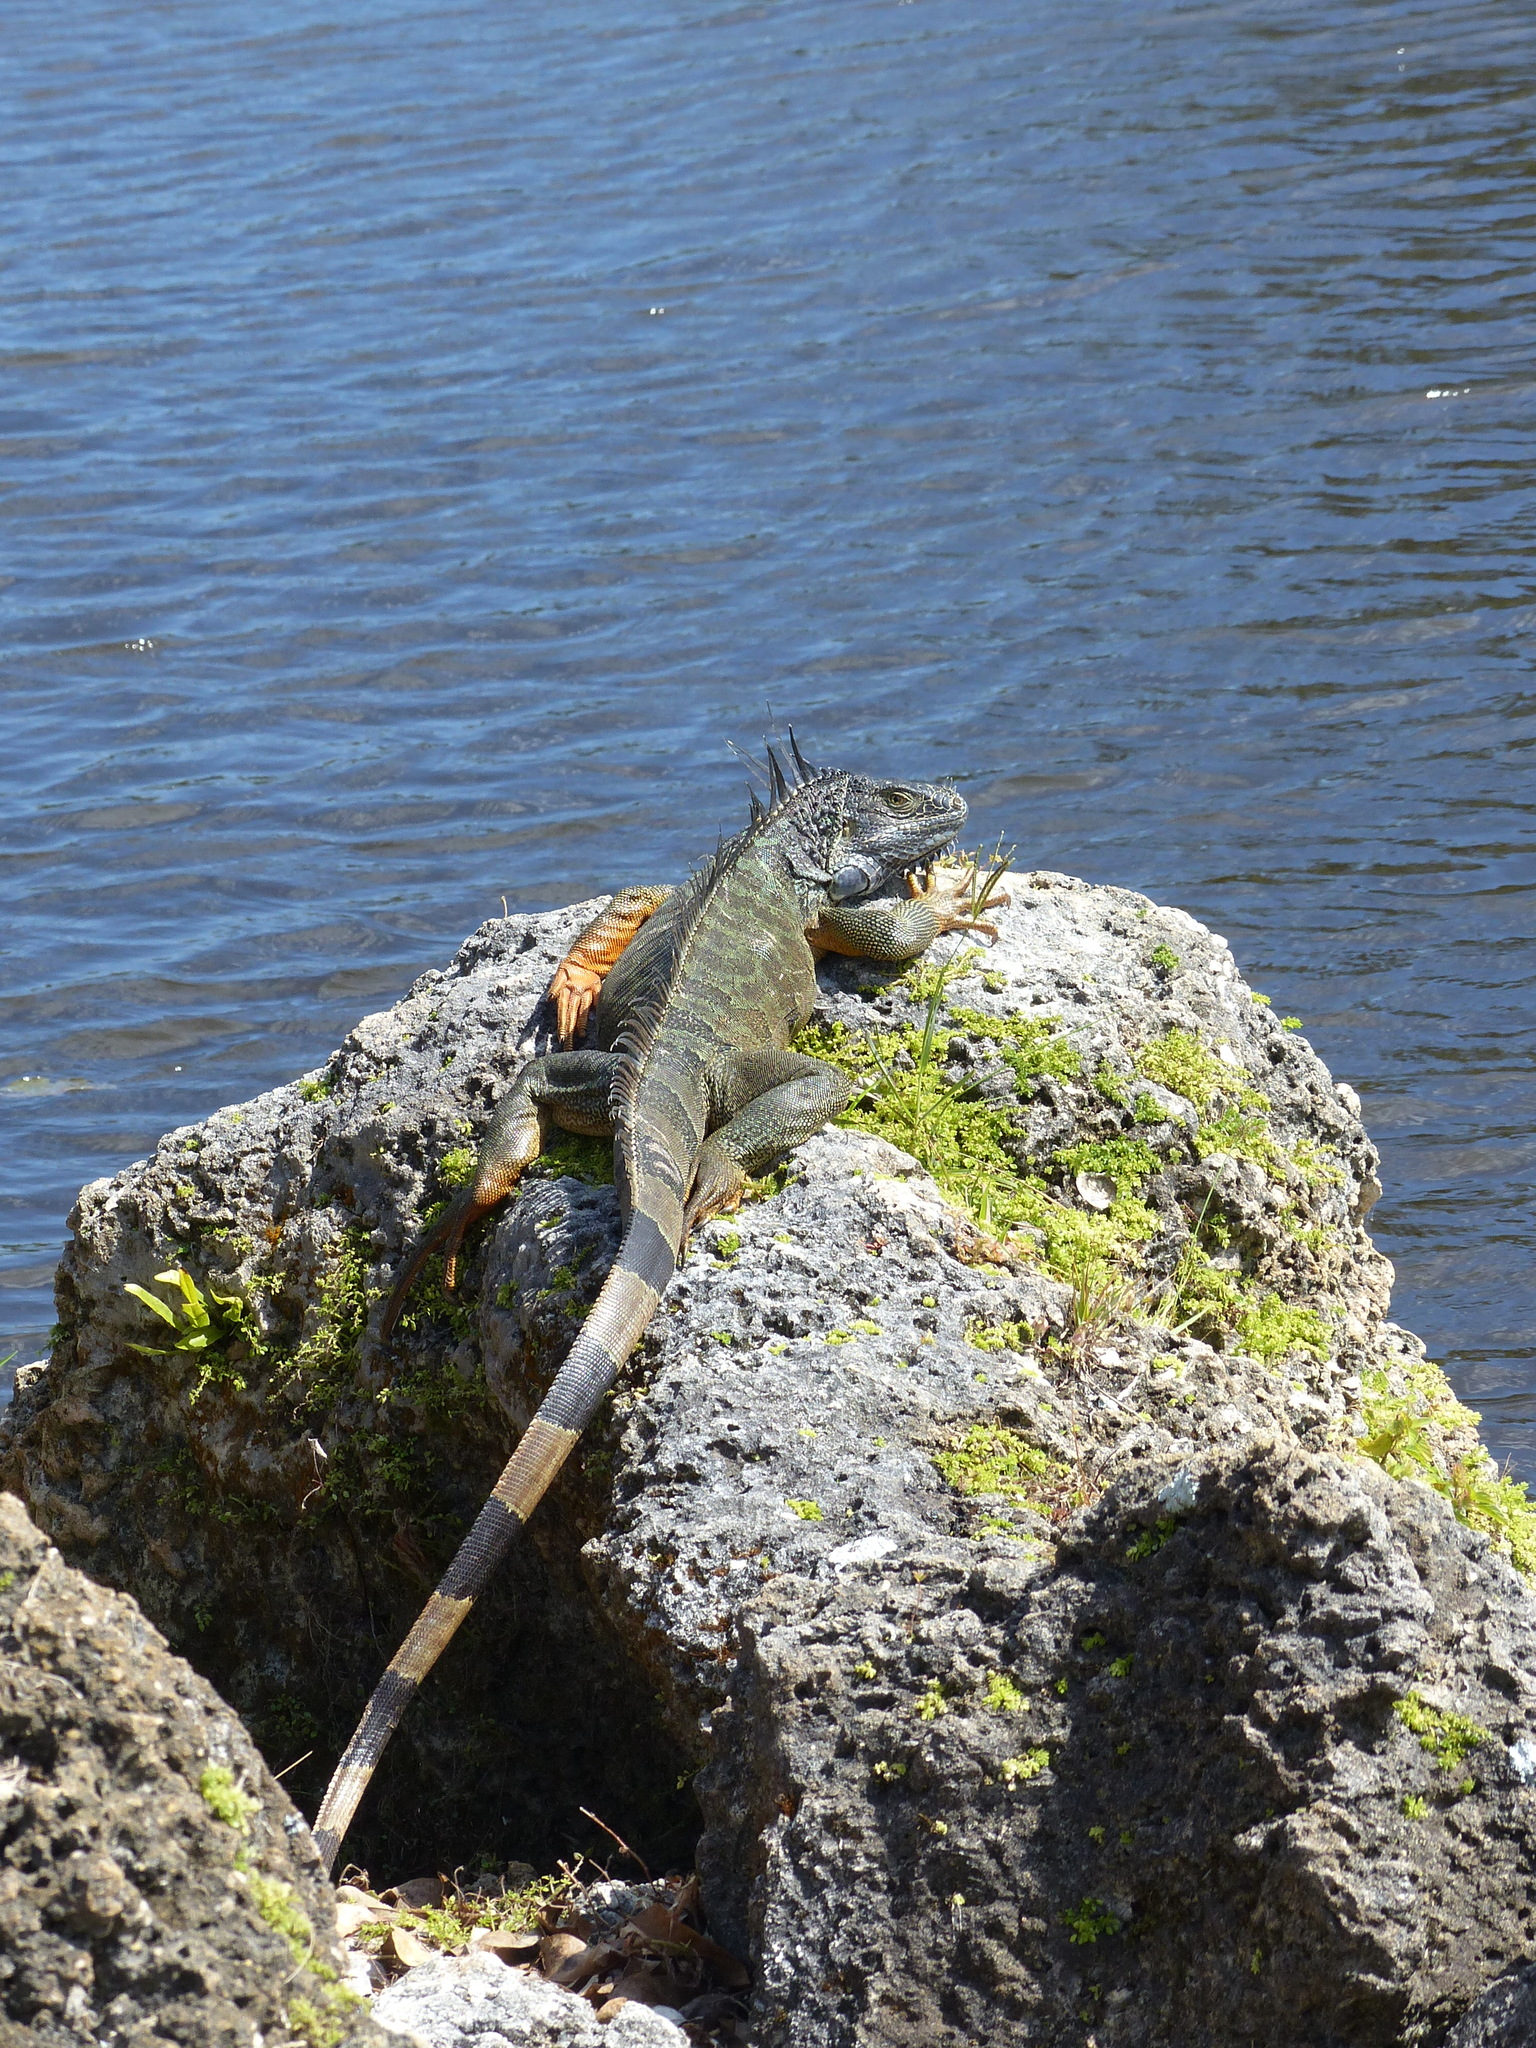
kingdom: Animalia
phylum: Chordata
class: Squamata
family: Iguanidae
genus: Iguana
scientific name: Iguana iguana
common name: Green iguana
